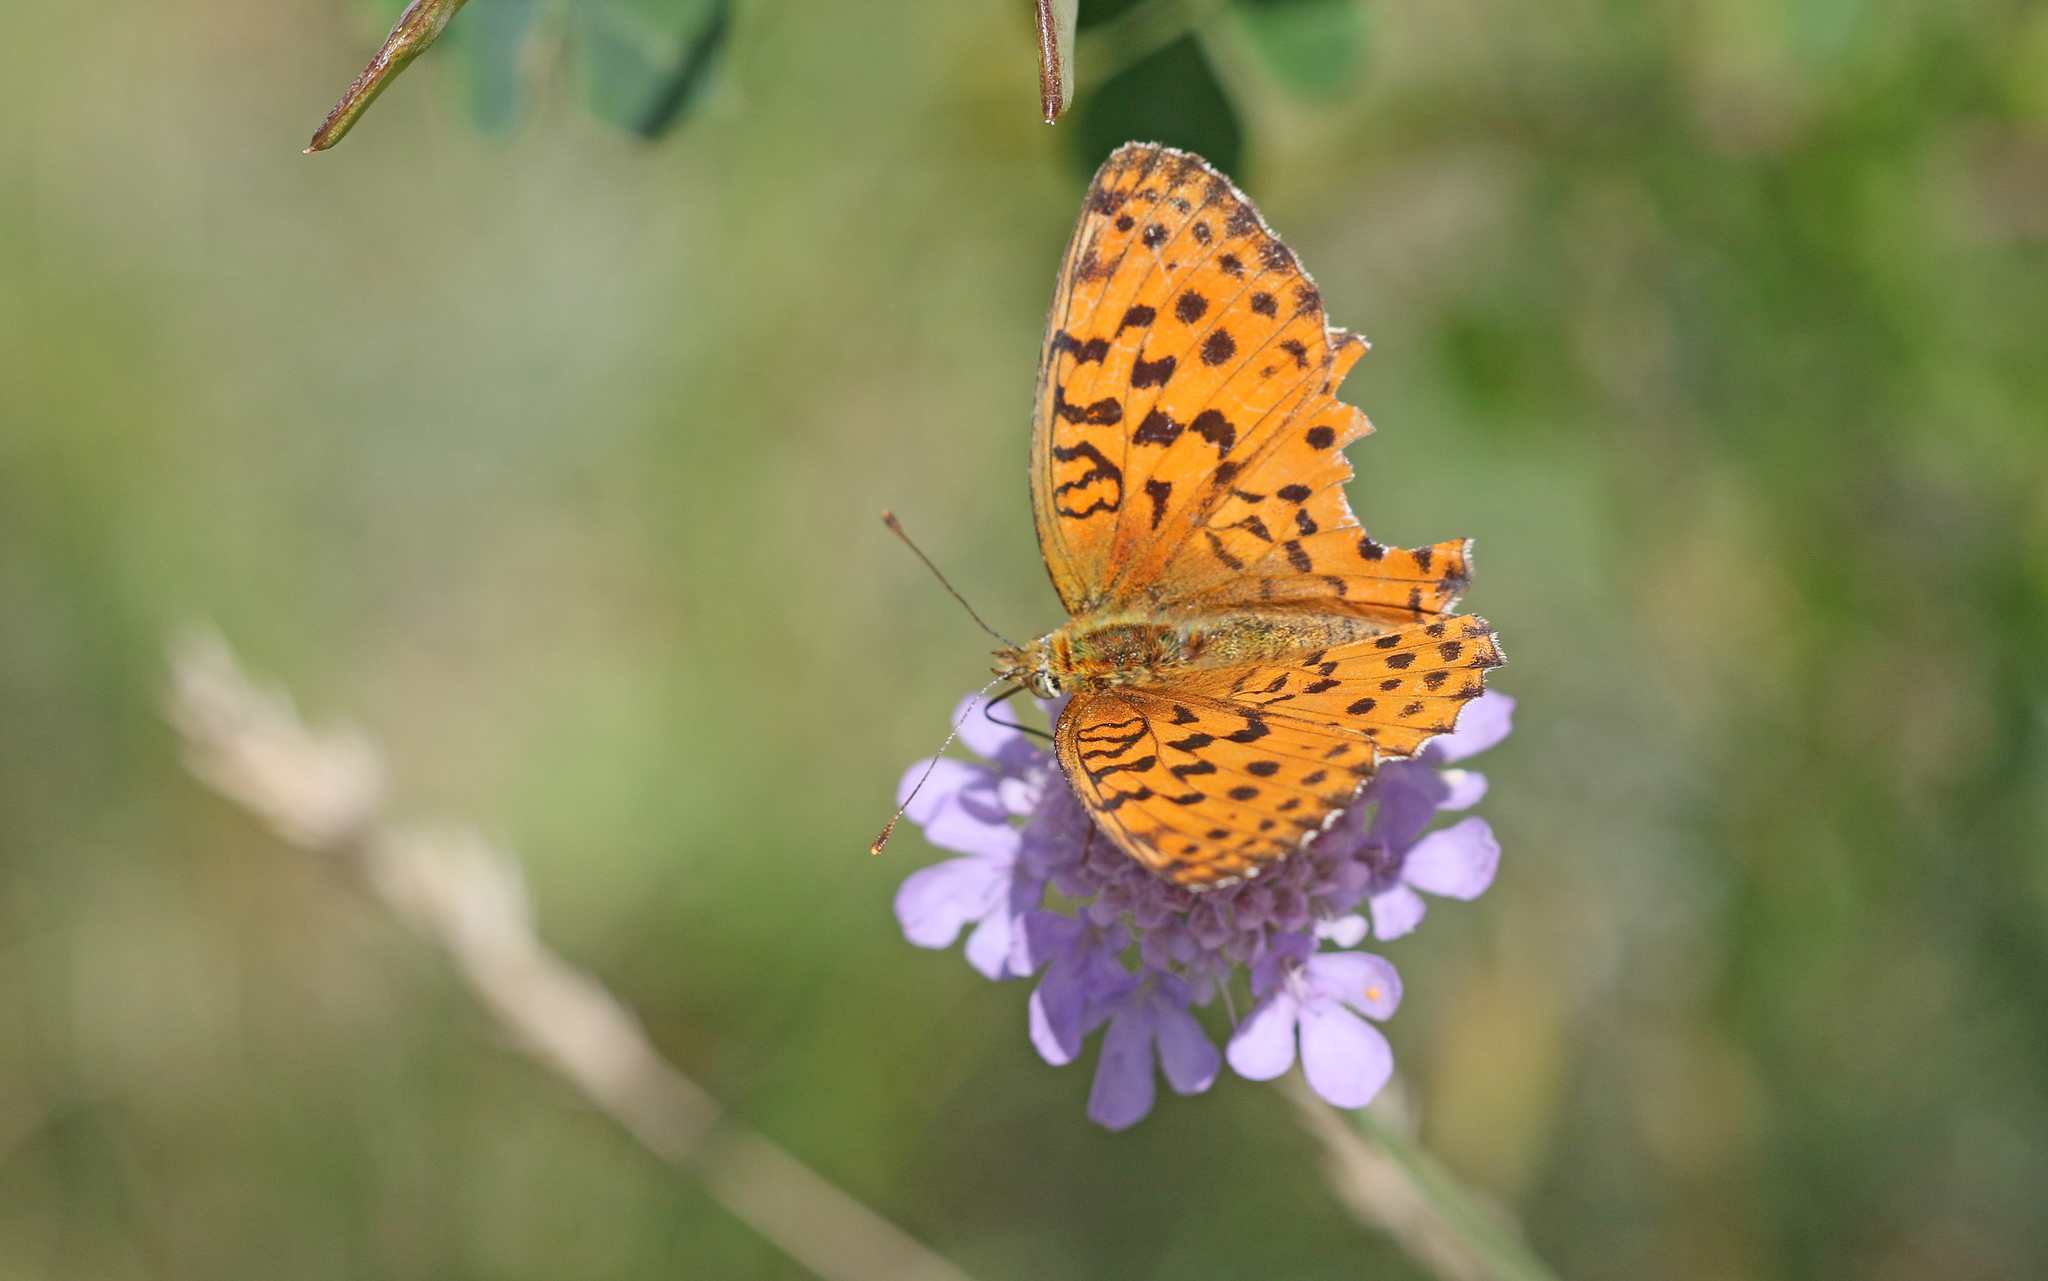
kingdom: Animalia
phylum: Arthropoda
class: Insecta
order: Lepidoptera
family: Nymphalidae
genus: Brenthis
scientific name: Brenthis daphne
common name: Marbled fritillary
